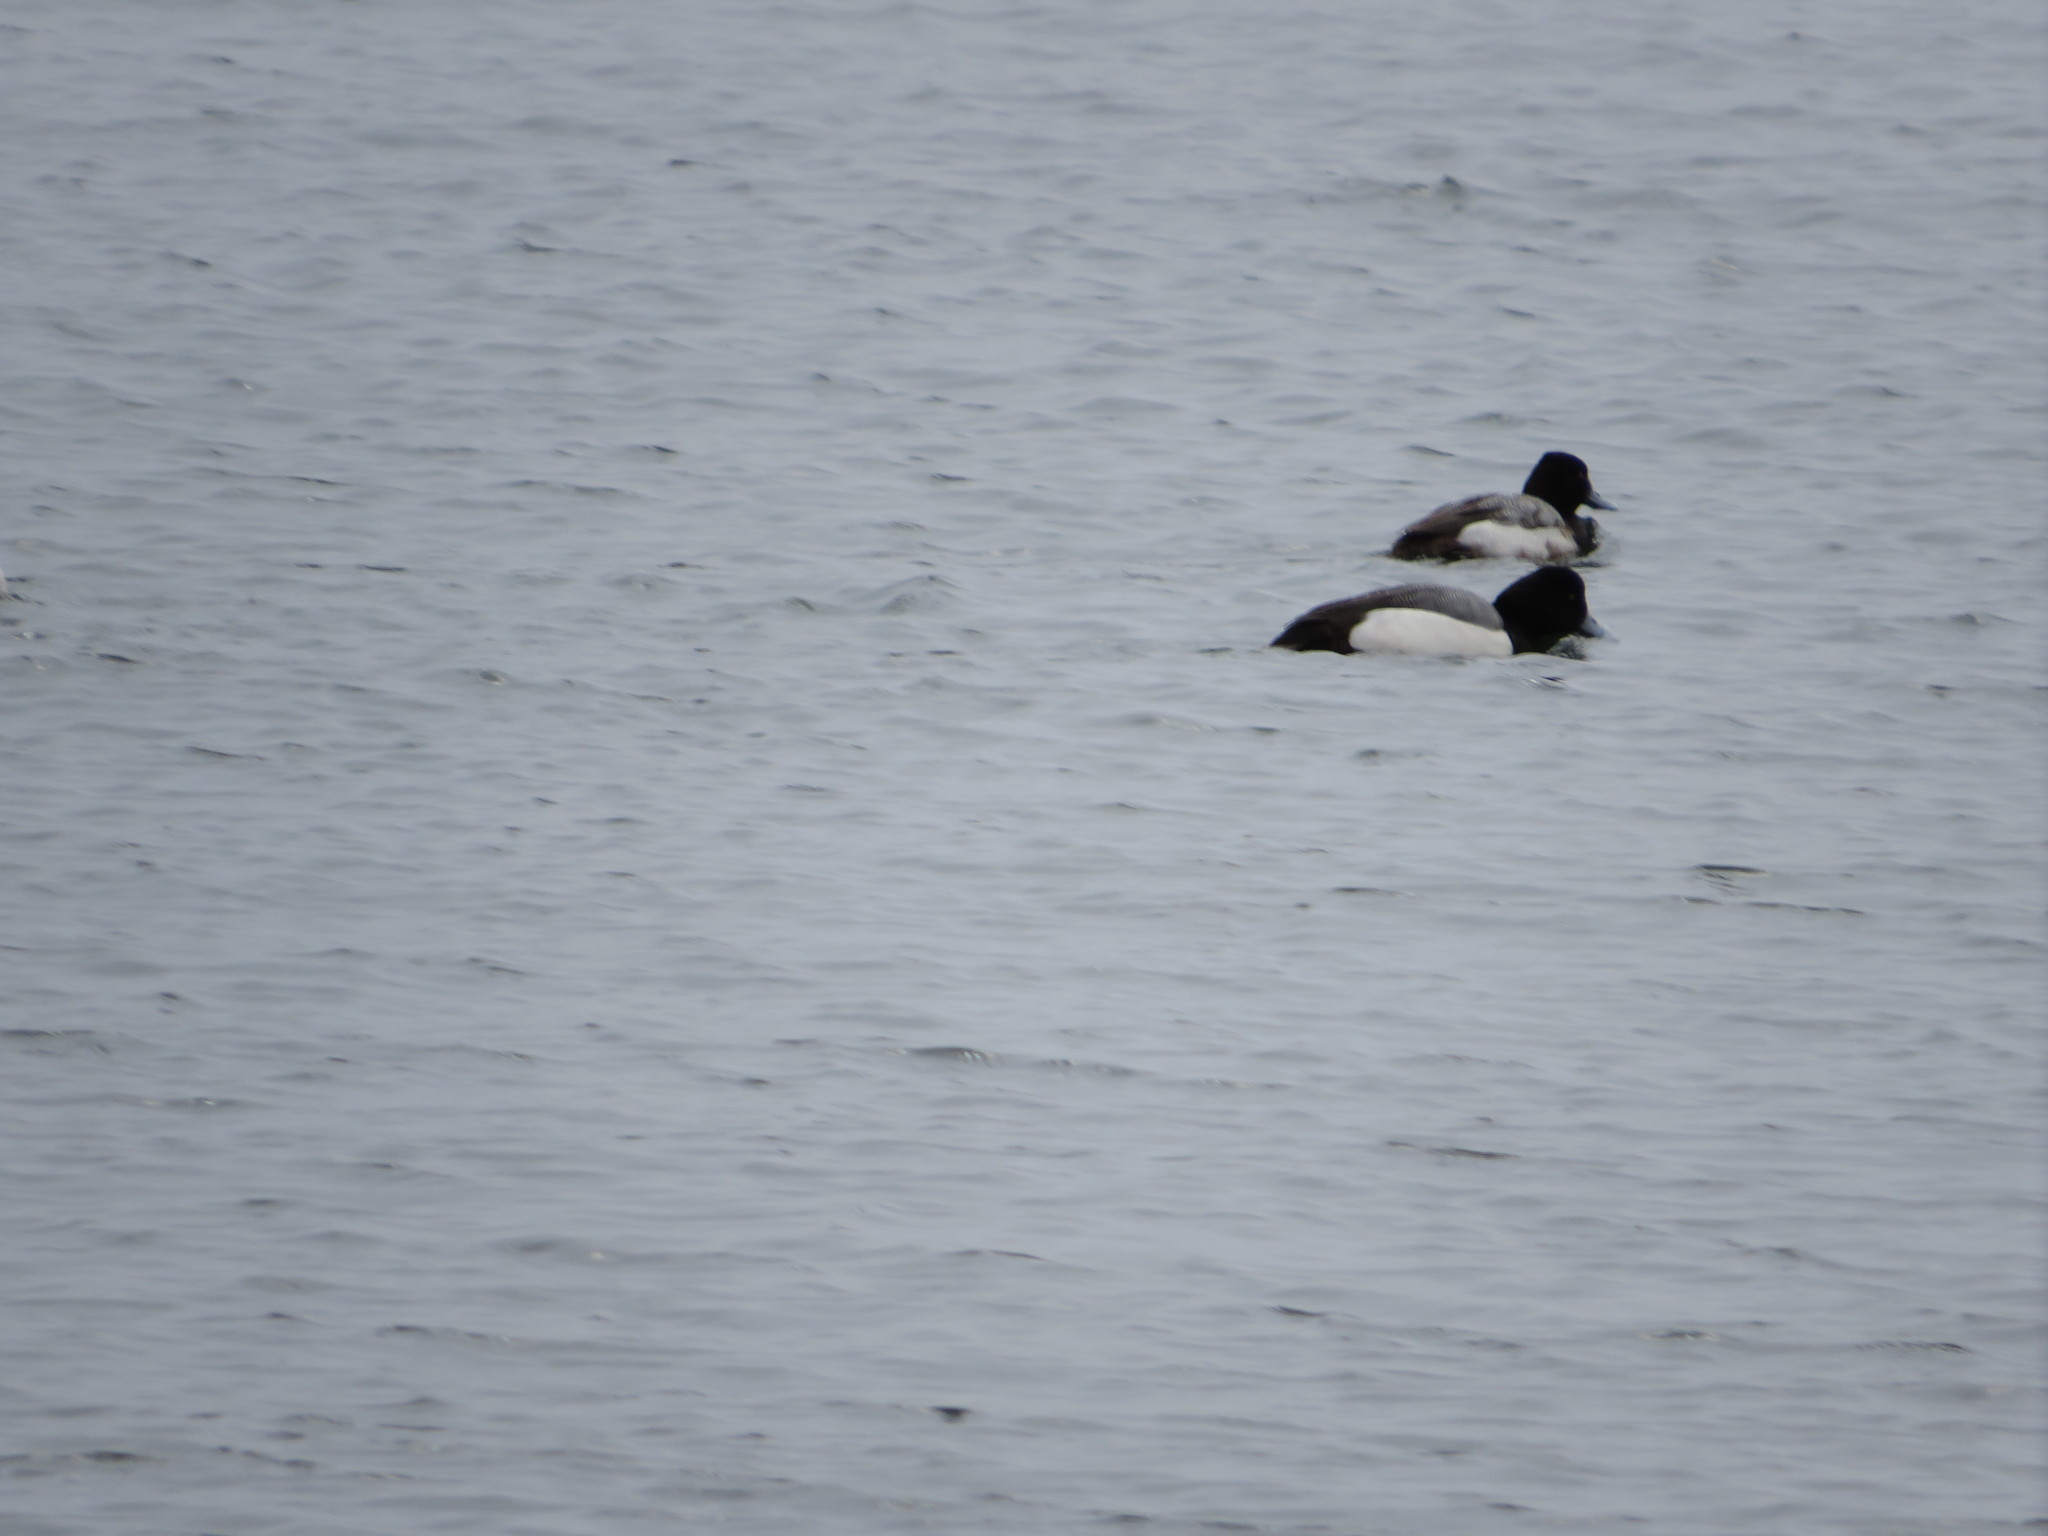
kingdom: Animalia
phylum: Chordata
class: Aves
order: Anseriformes
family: Anatidae
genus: Aythya
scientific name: Aythya marila
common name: Greater scaup
